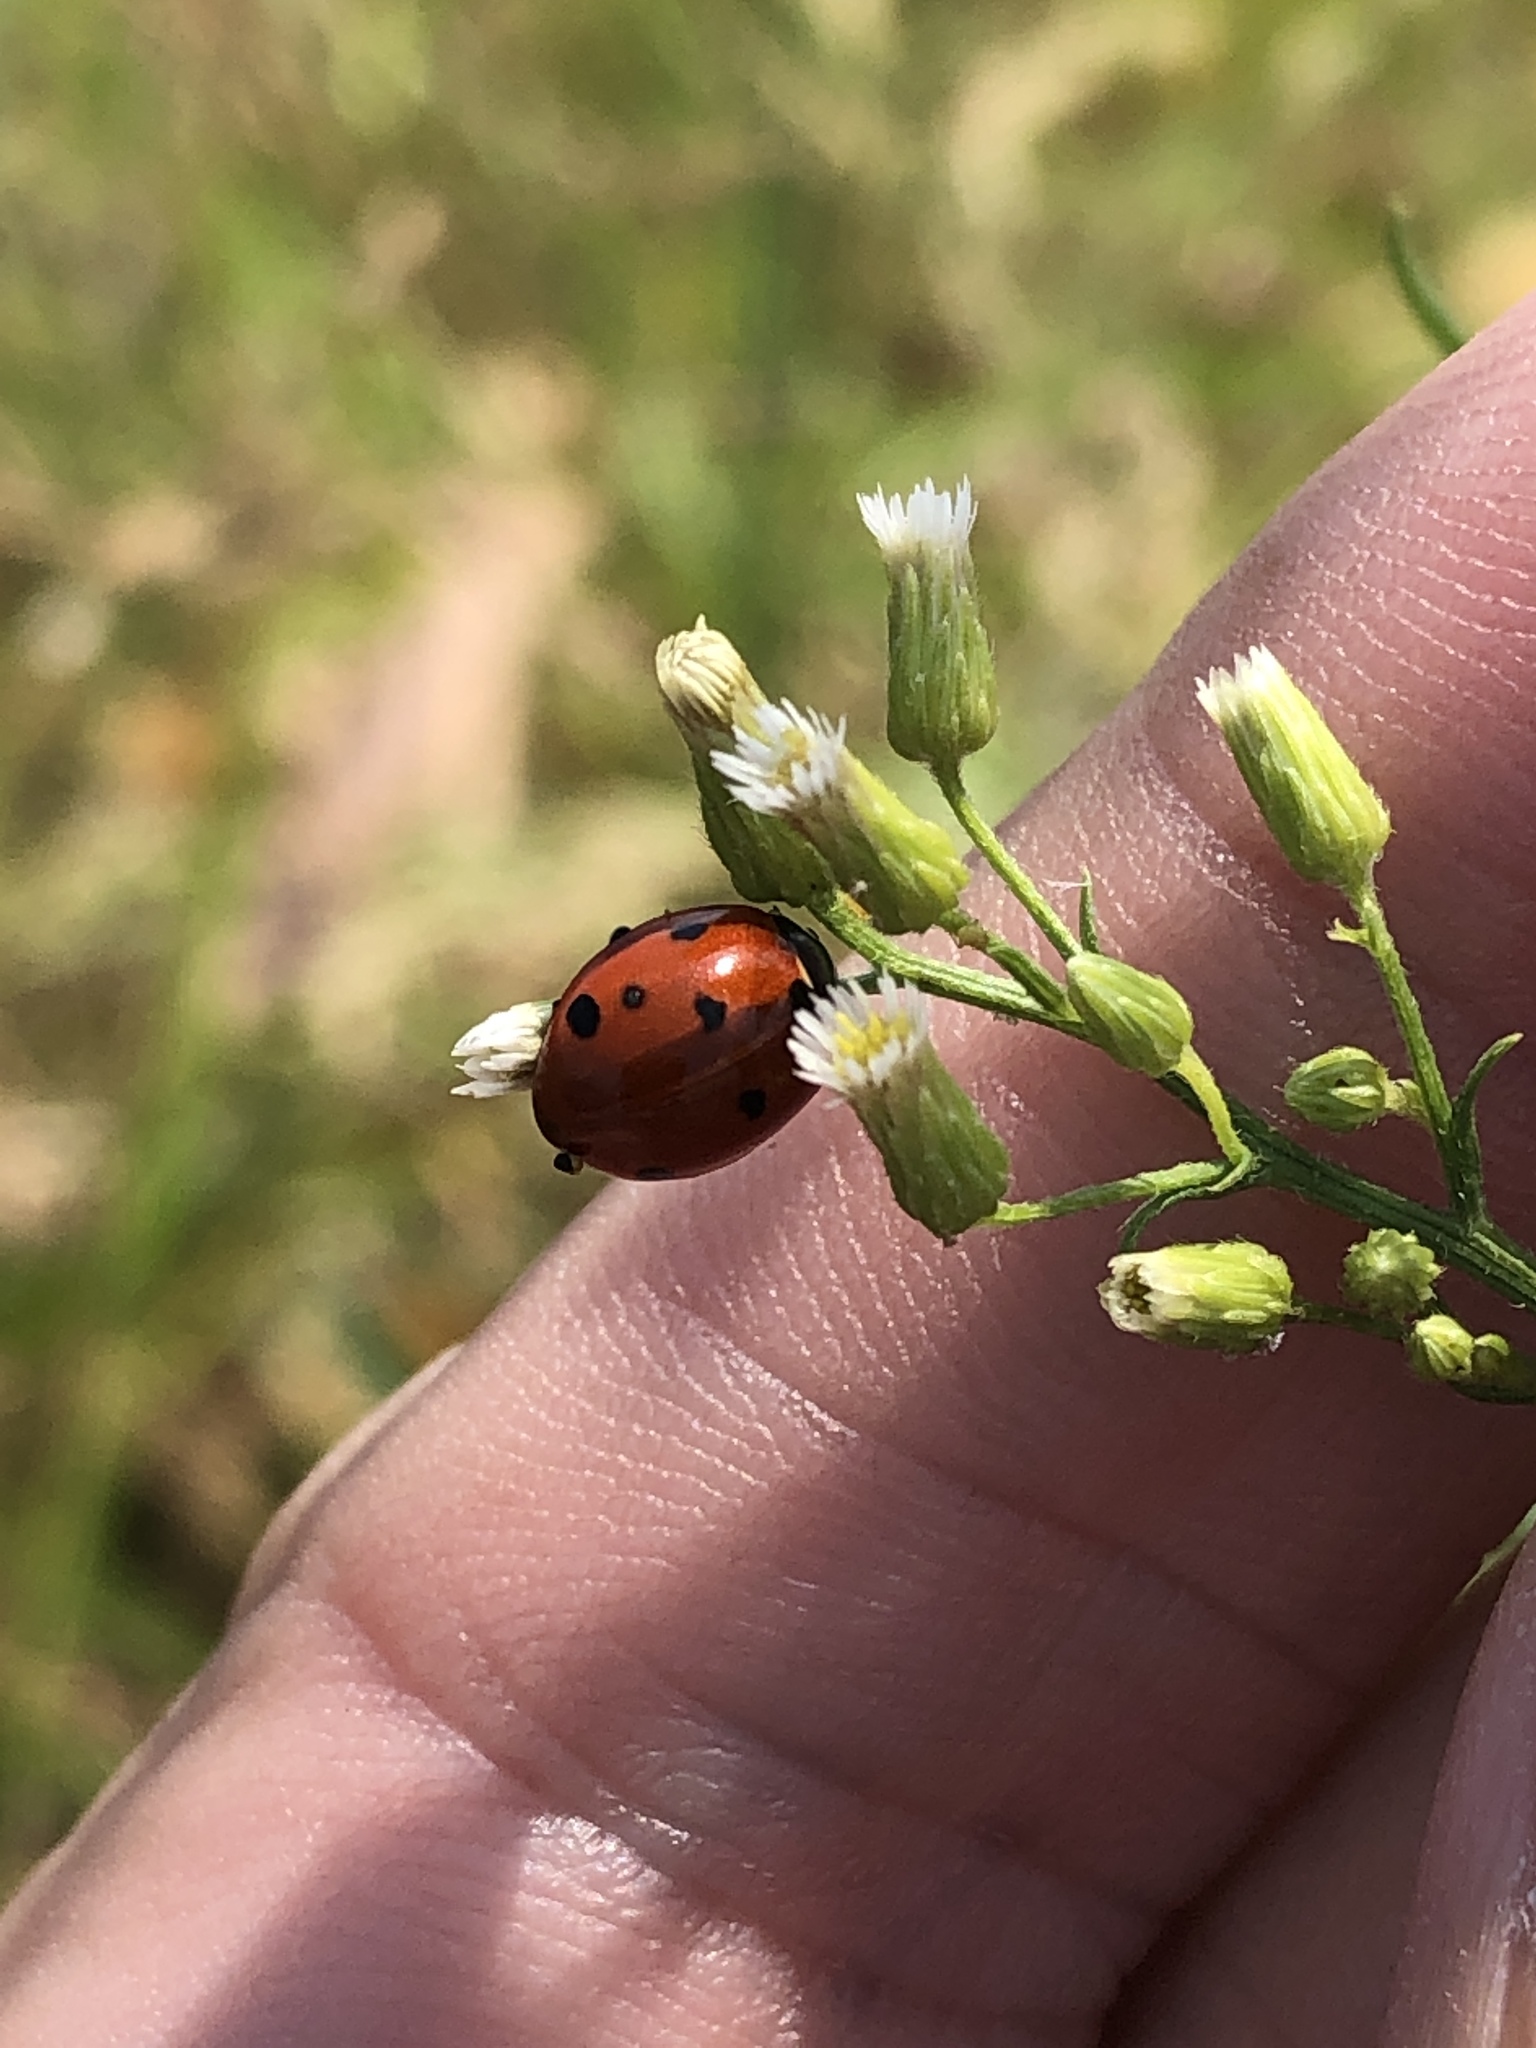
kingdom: Animalia
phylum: Arthropoda
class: Insecta
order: Coleoptera
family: Coccinellidae
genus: Coccinella
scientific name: Coccinella septempunctata
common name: Sevenspotted lady beetle
